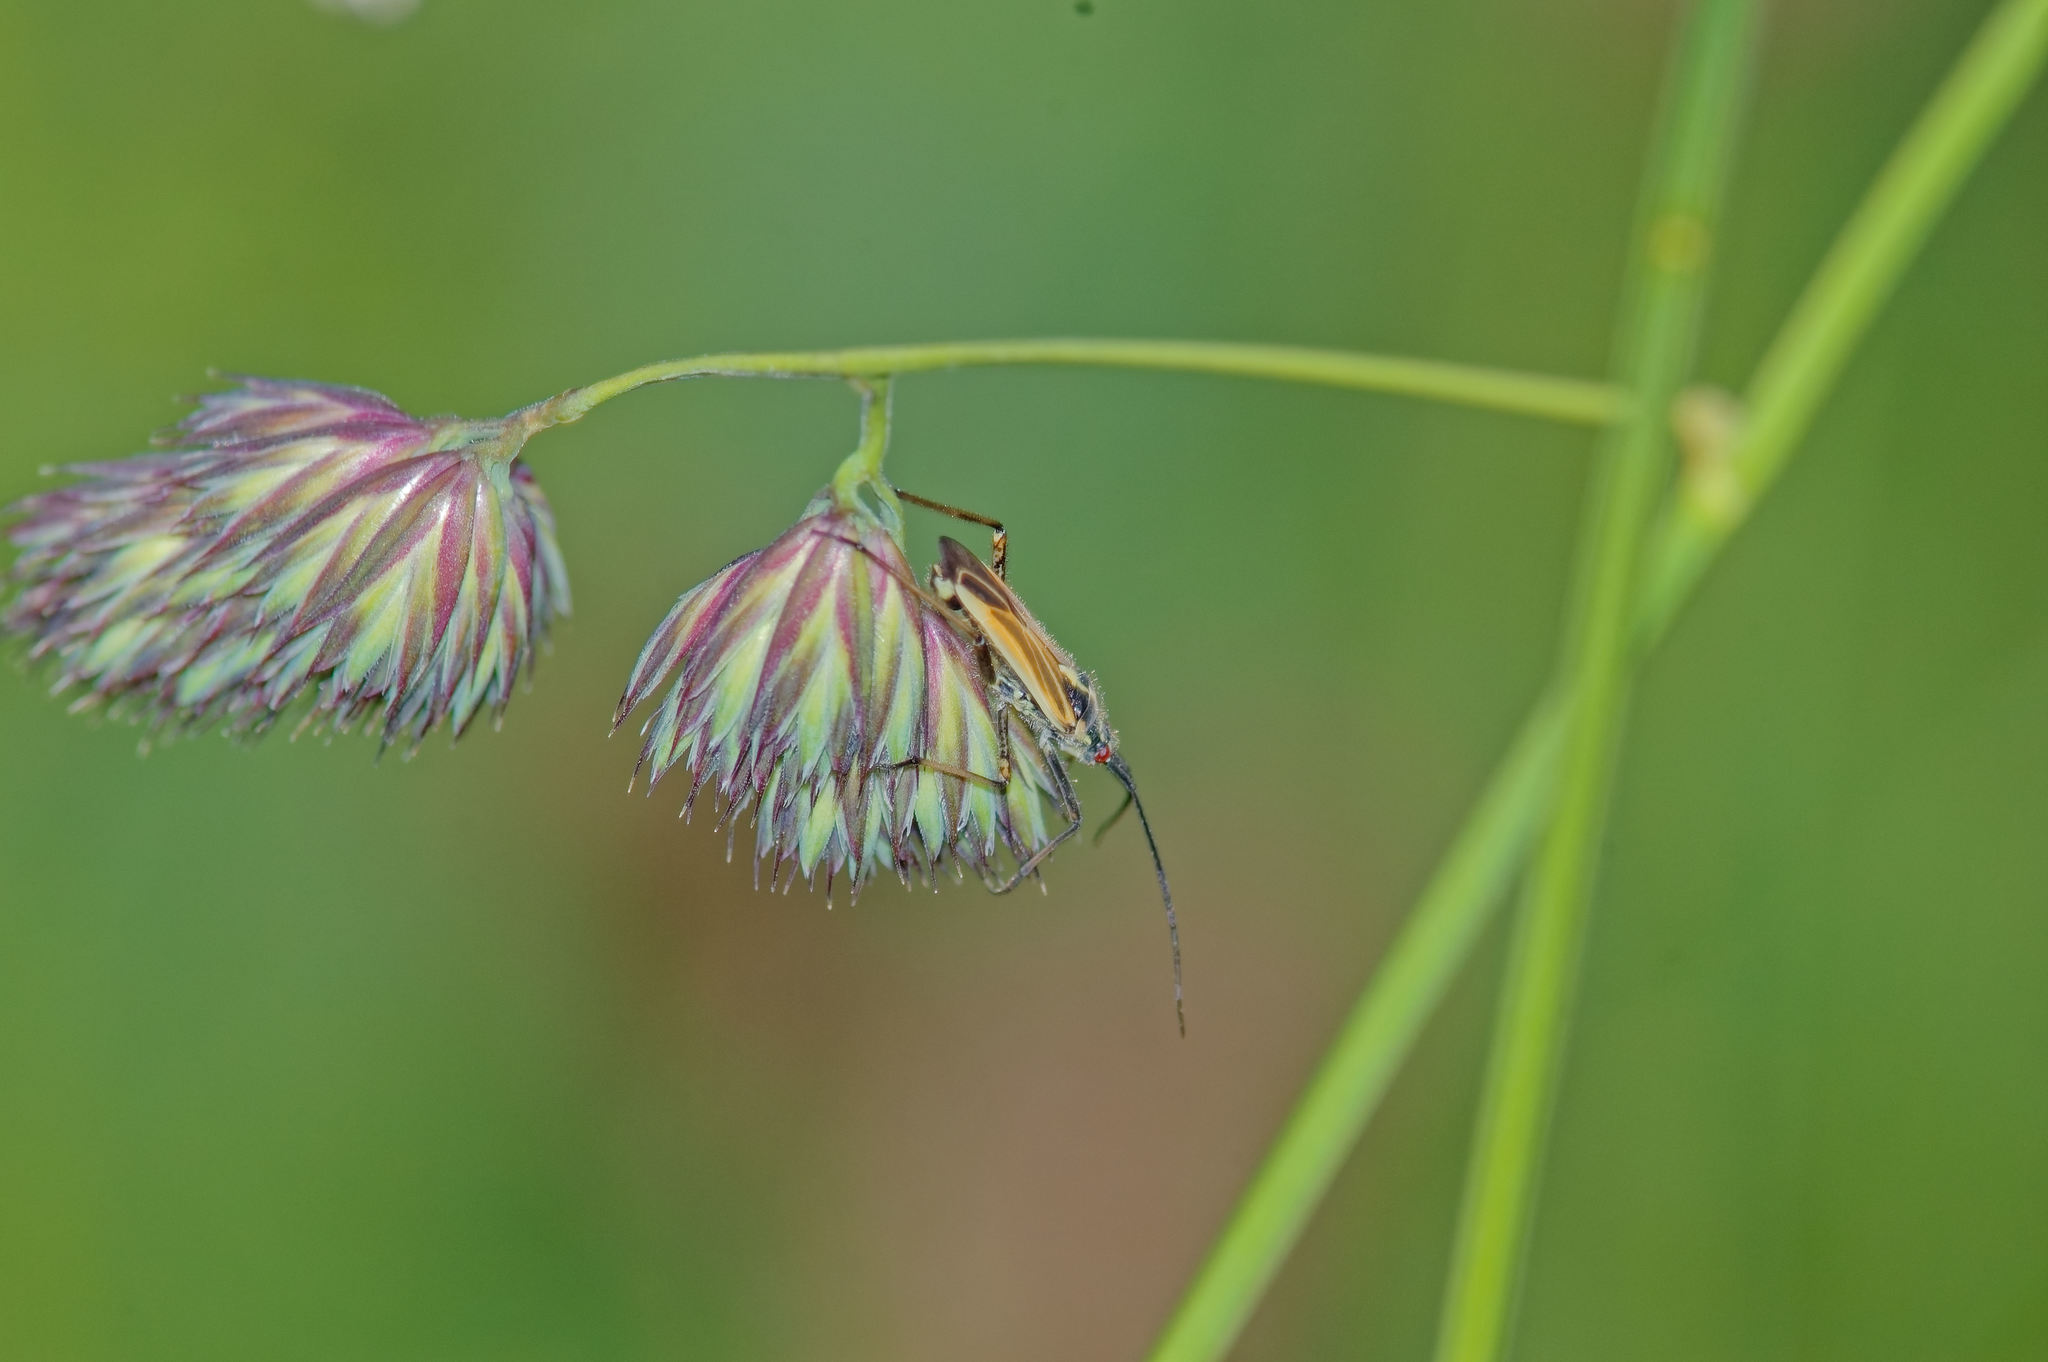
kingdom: Animalia
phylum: Arthropoda
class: Insecta
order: Hemiptera
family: Miridae
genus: Leptopterna
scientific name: Leptopterna dolabrata
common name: Meadow plant bug
